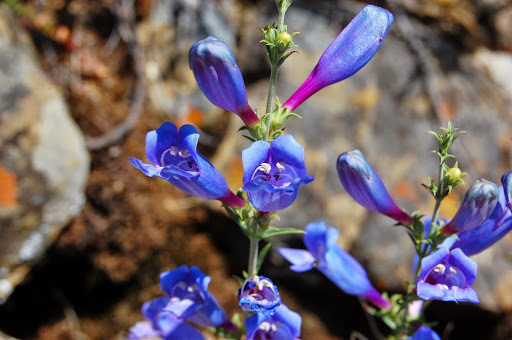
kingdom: Plantae
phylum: Tracheophyta
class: Magnoliopsida
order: Lamiales
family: Plantaginaceae
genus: Penstemon
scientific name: Penstemon heterophyllus
